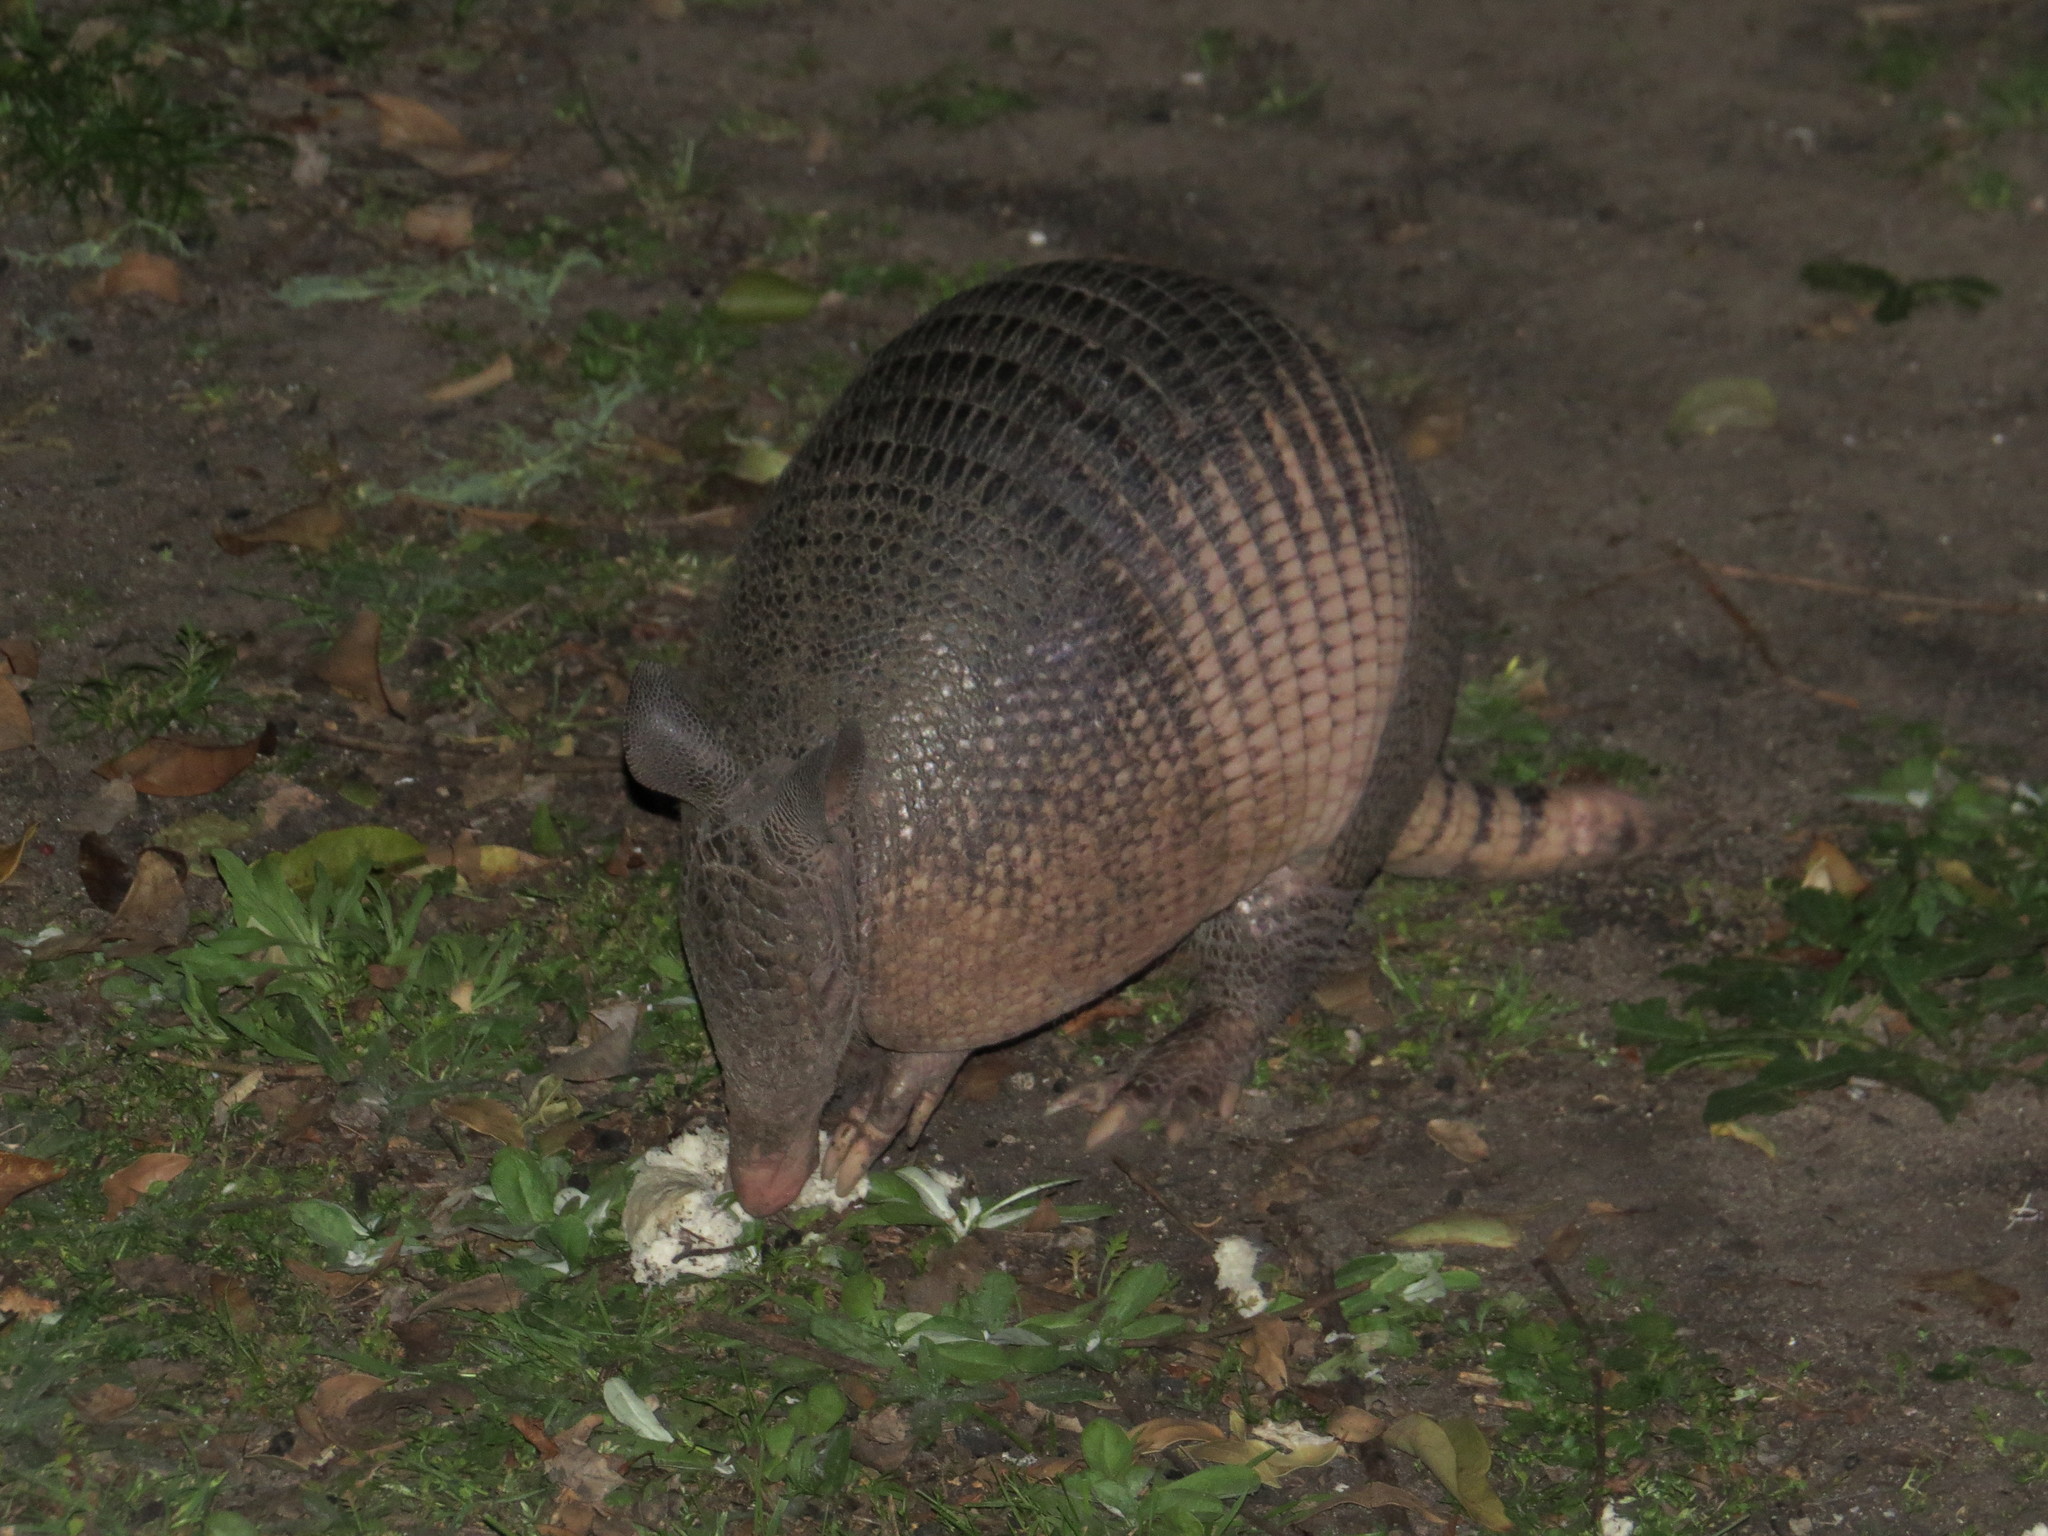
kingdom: Animalia
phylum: Chordata
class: Mammalia
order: Cingulata
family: Dasypodidae
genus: Dasypus
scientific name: Dasypus novemcinctus
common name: Nine-banded armadillo
